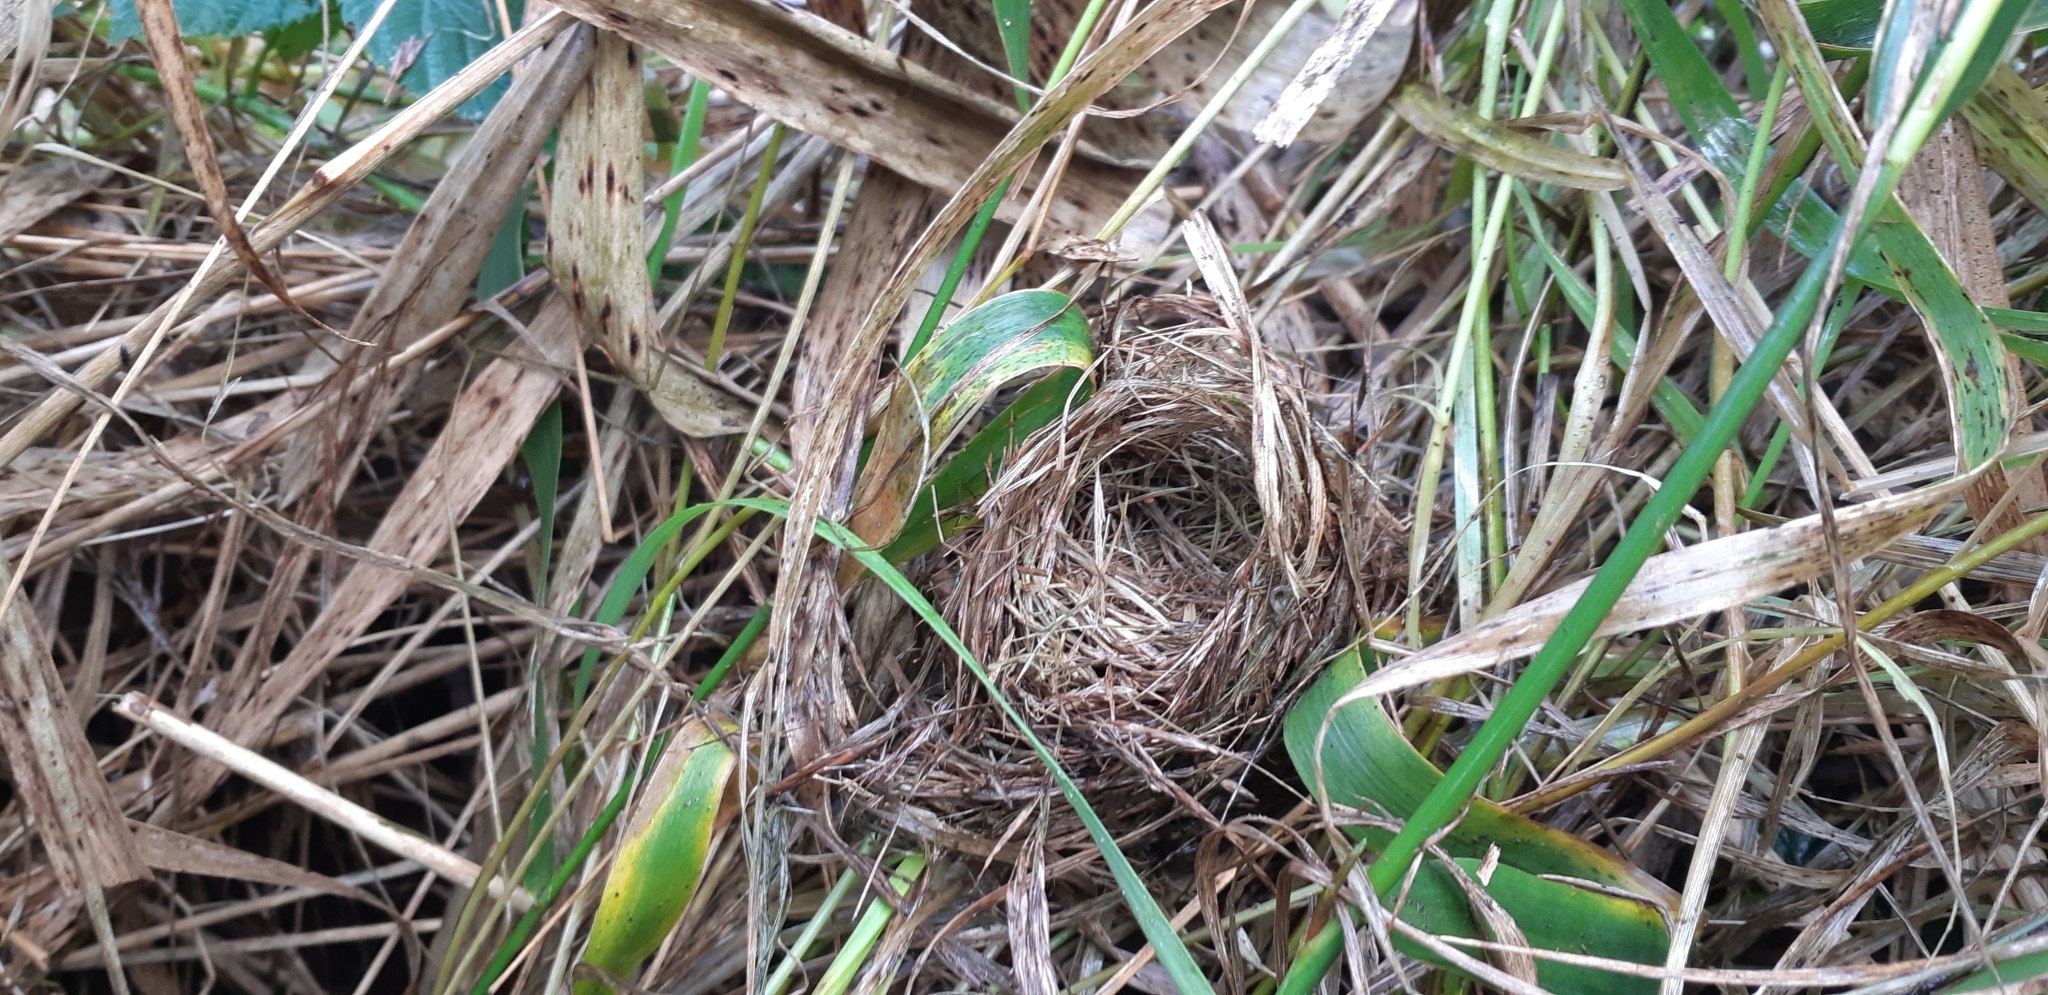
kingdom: Animalia
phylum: Chordata
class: Mammalia
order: Rodentia
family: Muridae
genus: Micromys
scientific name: Micromys minutus
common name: Harvest mouse
